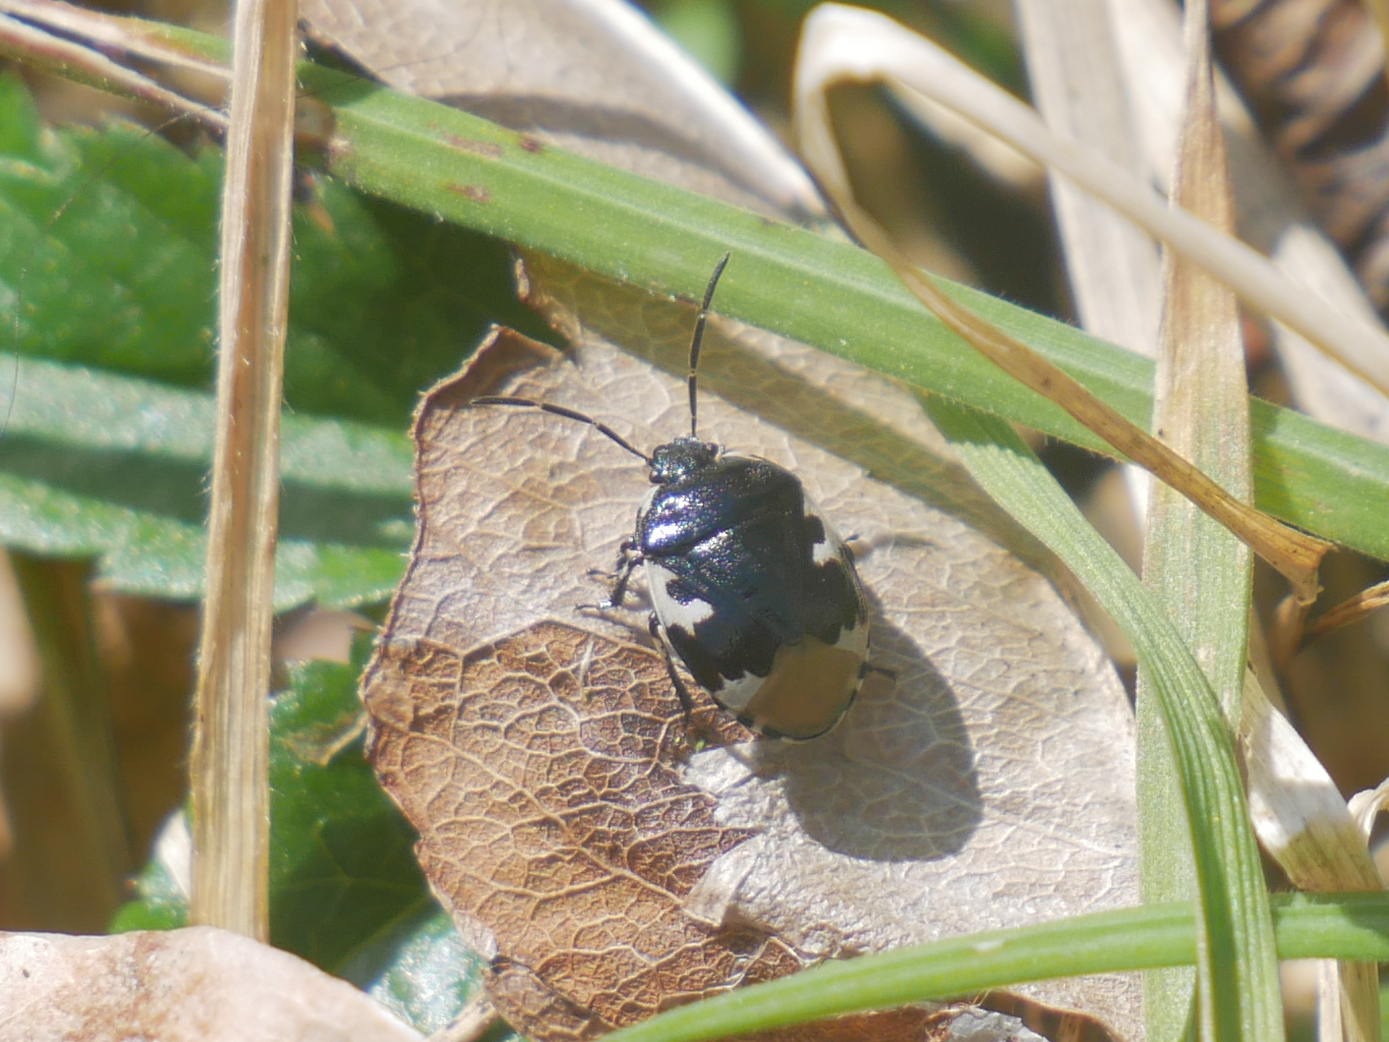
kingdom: Animalia
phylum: Arthropoda
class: Insecta
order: Hemiptera
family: Cydnidae
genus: Tritomegas
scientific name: Tritomegas bicolor
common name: Pied shieldbug
